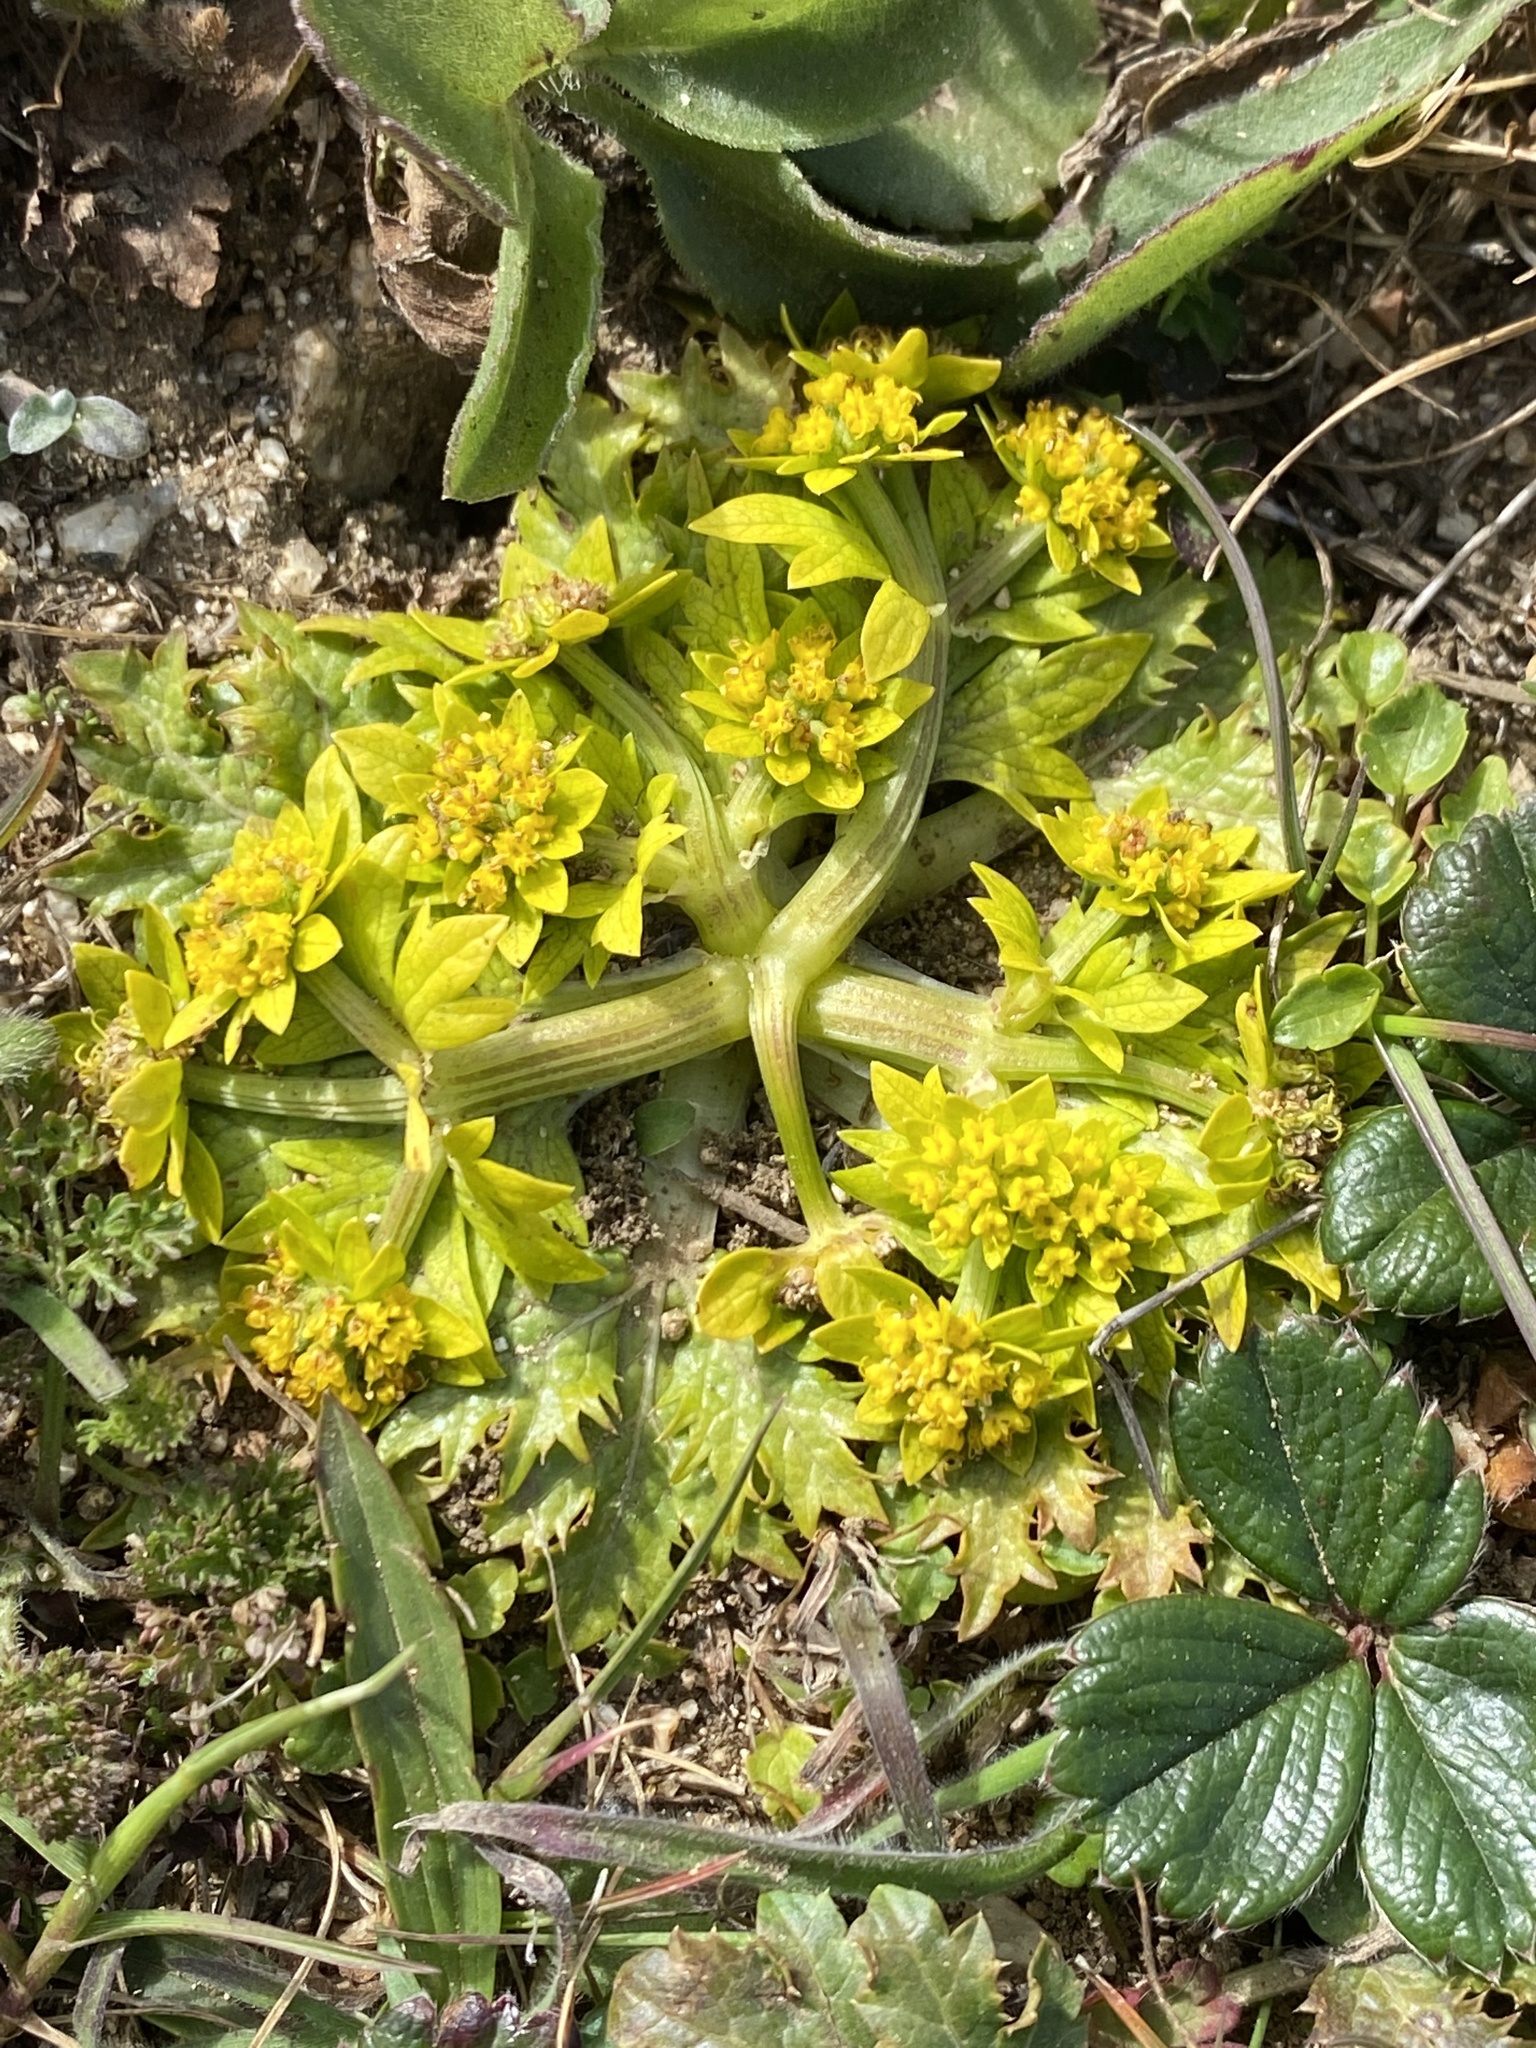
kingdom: Plantae
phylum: Tracheophyta
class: Magnoliopsida
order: Apiales
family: Apiaceae
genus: Sanicula
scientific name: Sanicula arctopoides
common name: Footsteps-of-spring
